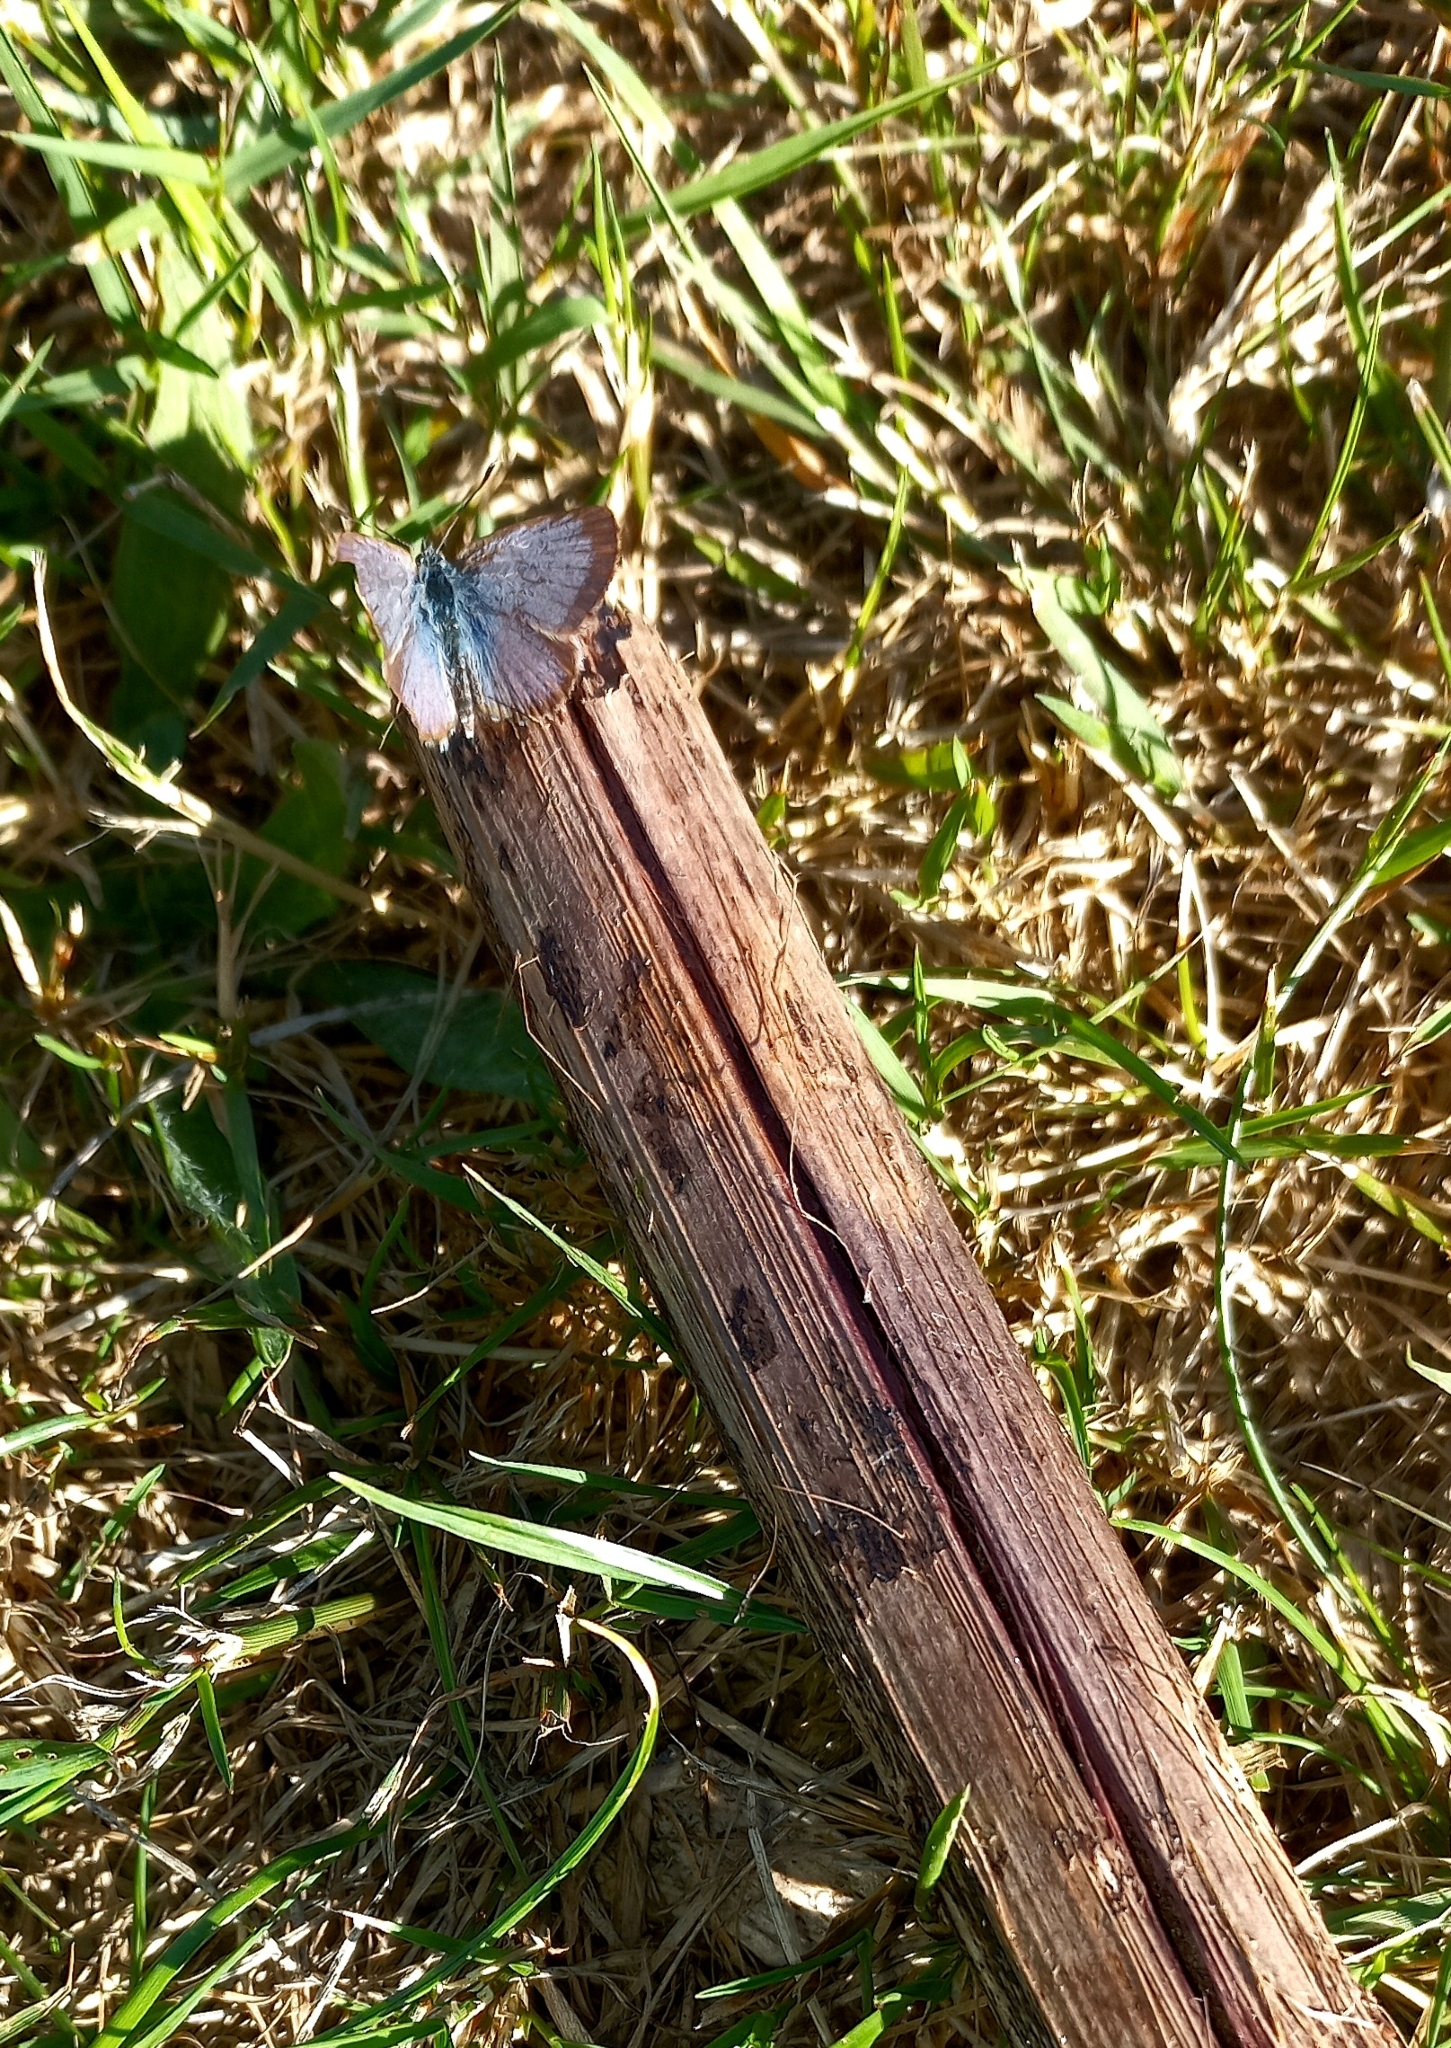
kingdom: Animalia
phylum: Arthropoda
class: Insecta
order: Lepidoptera
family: Lycaenidae
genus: Zizina
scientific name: Zizina oxleyi
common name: Southern blue
